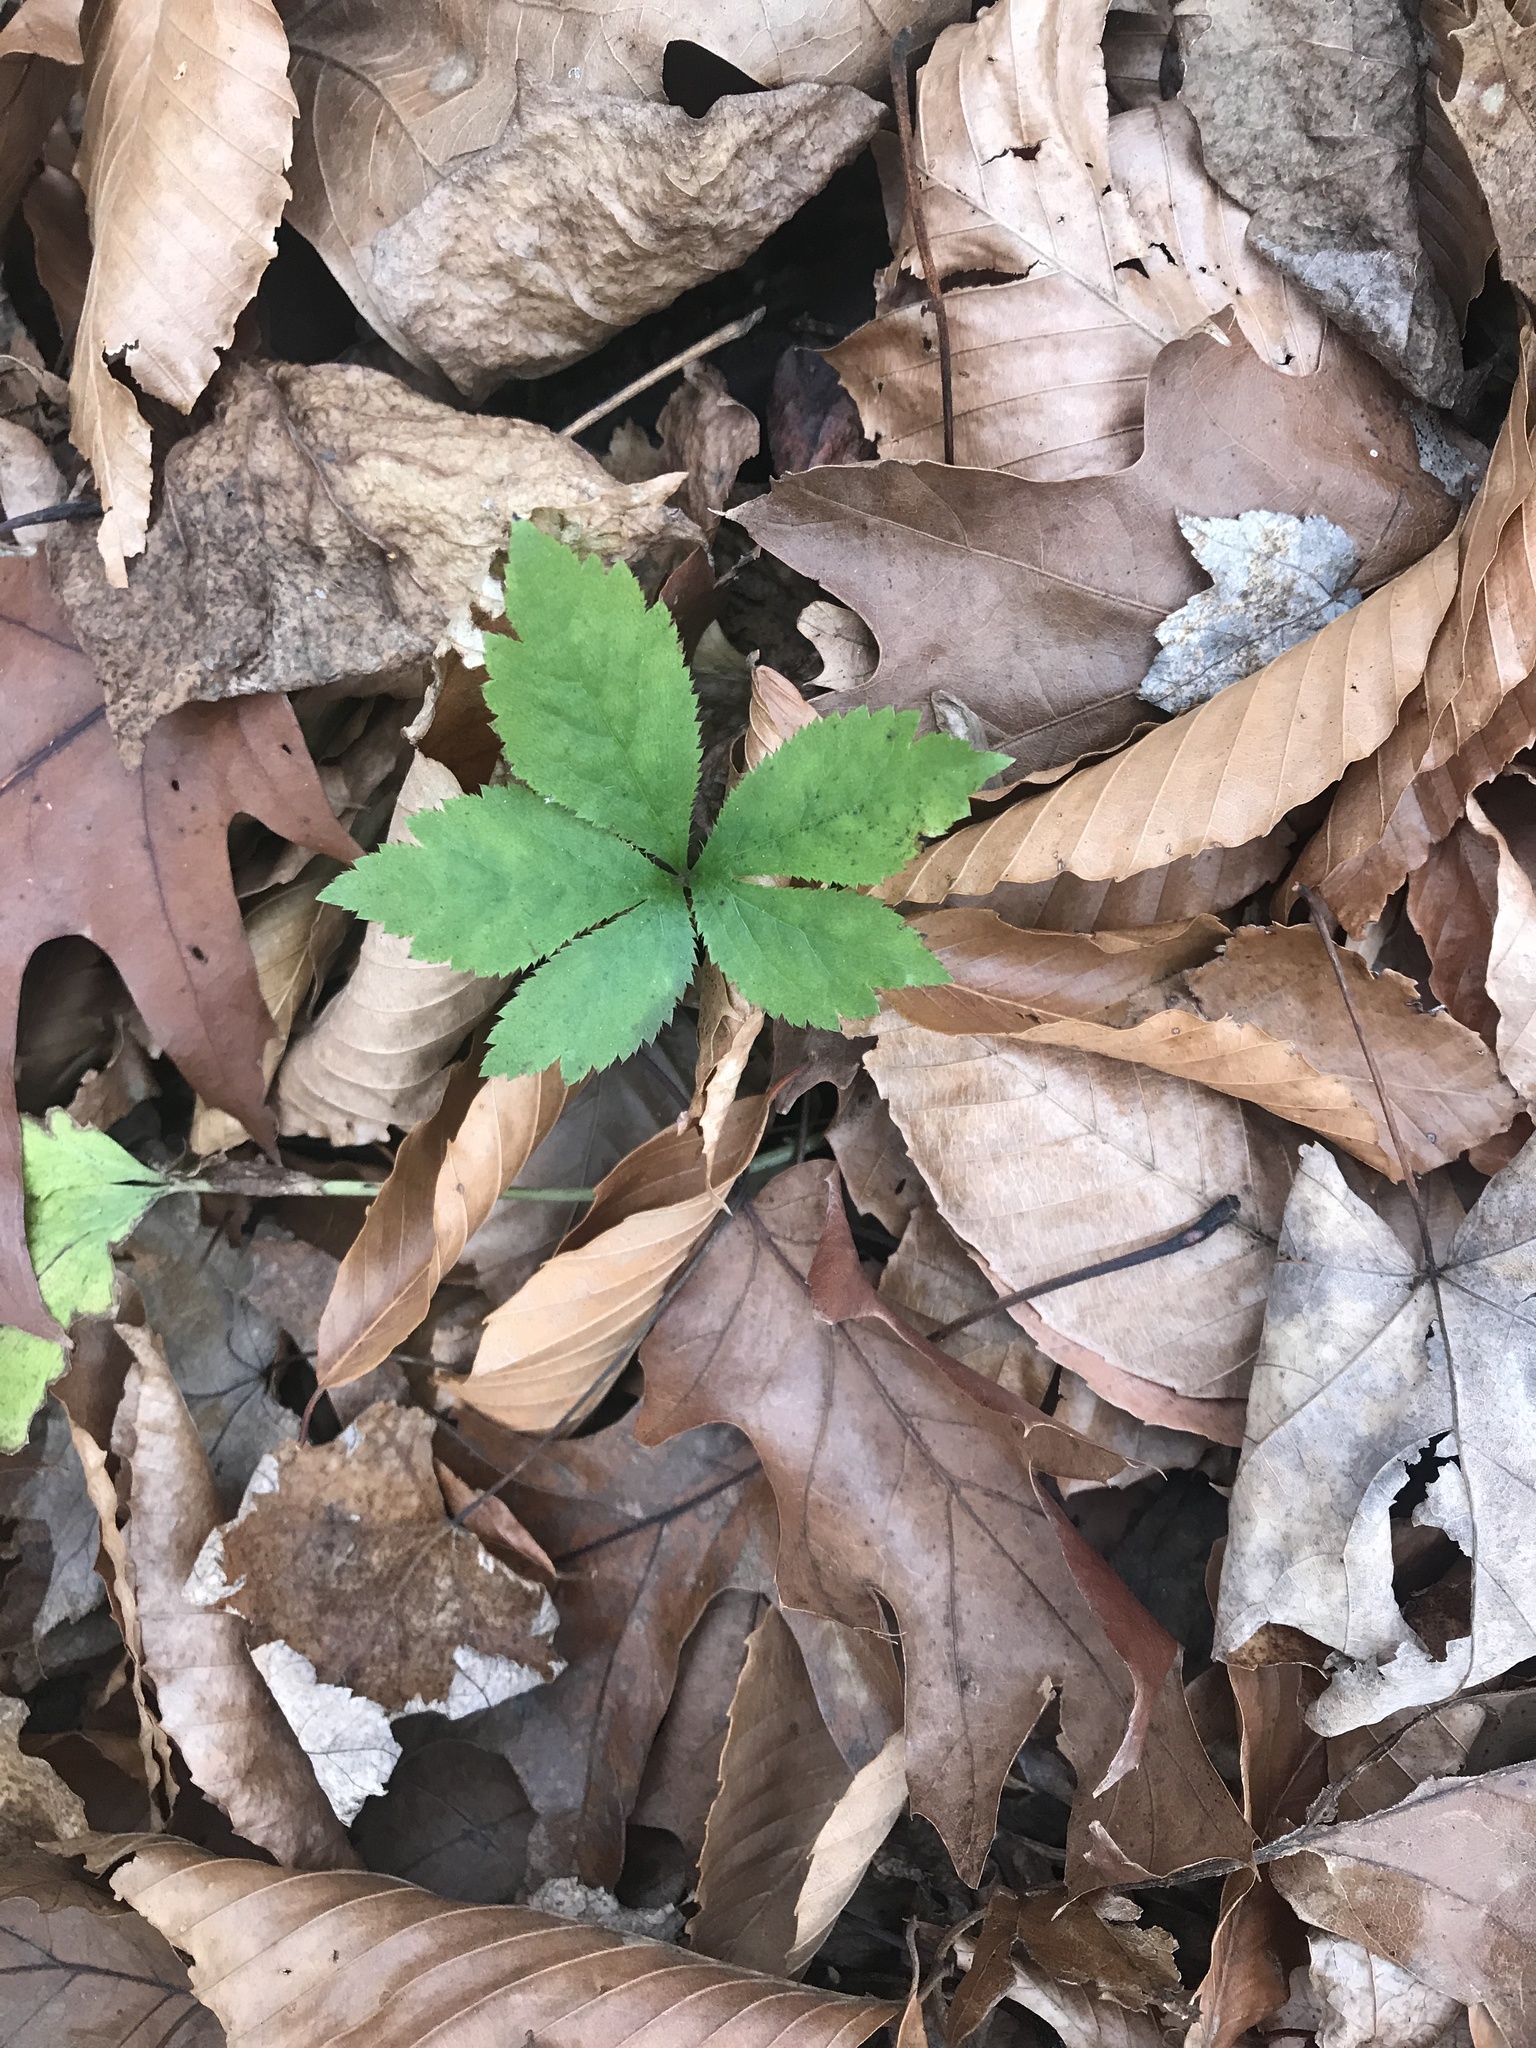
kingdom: Plantae
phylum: Tracheophyta
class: Magnoliopsida
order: Apiales
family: Apiaceae
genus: Sanicula
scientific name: Sanicula canadensis
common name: Canada sanicle
